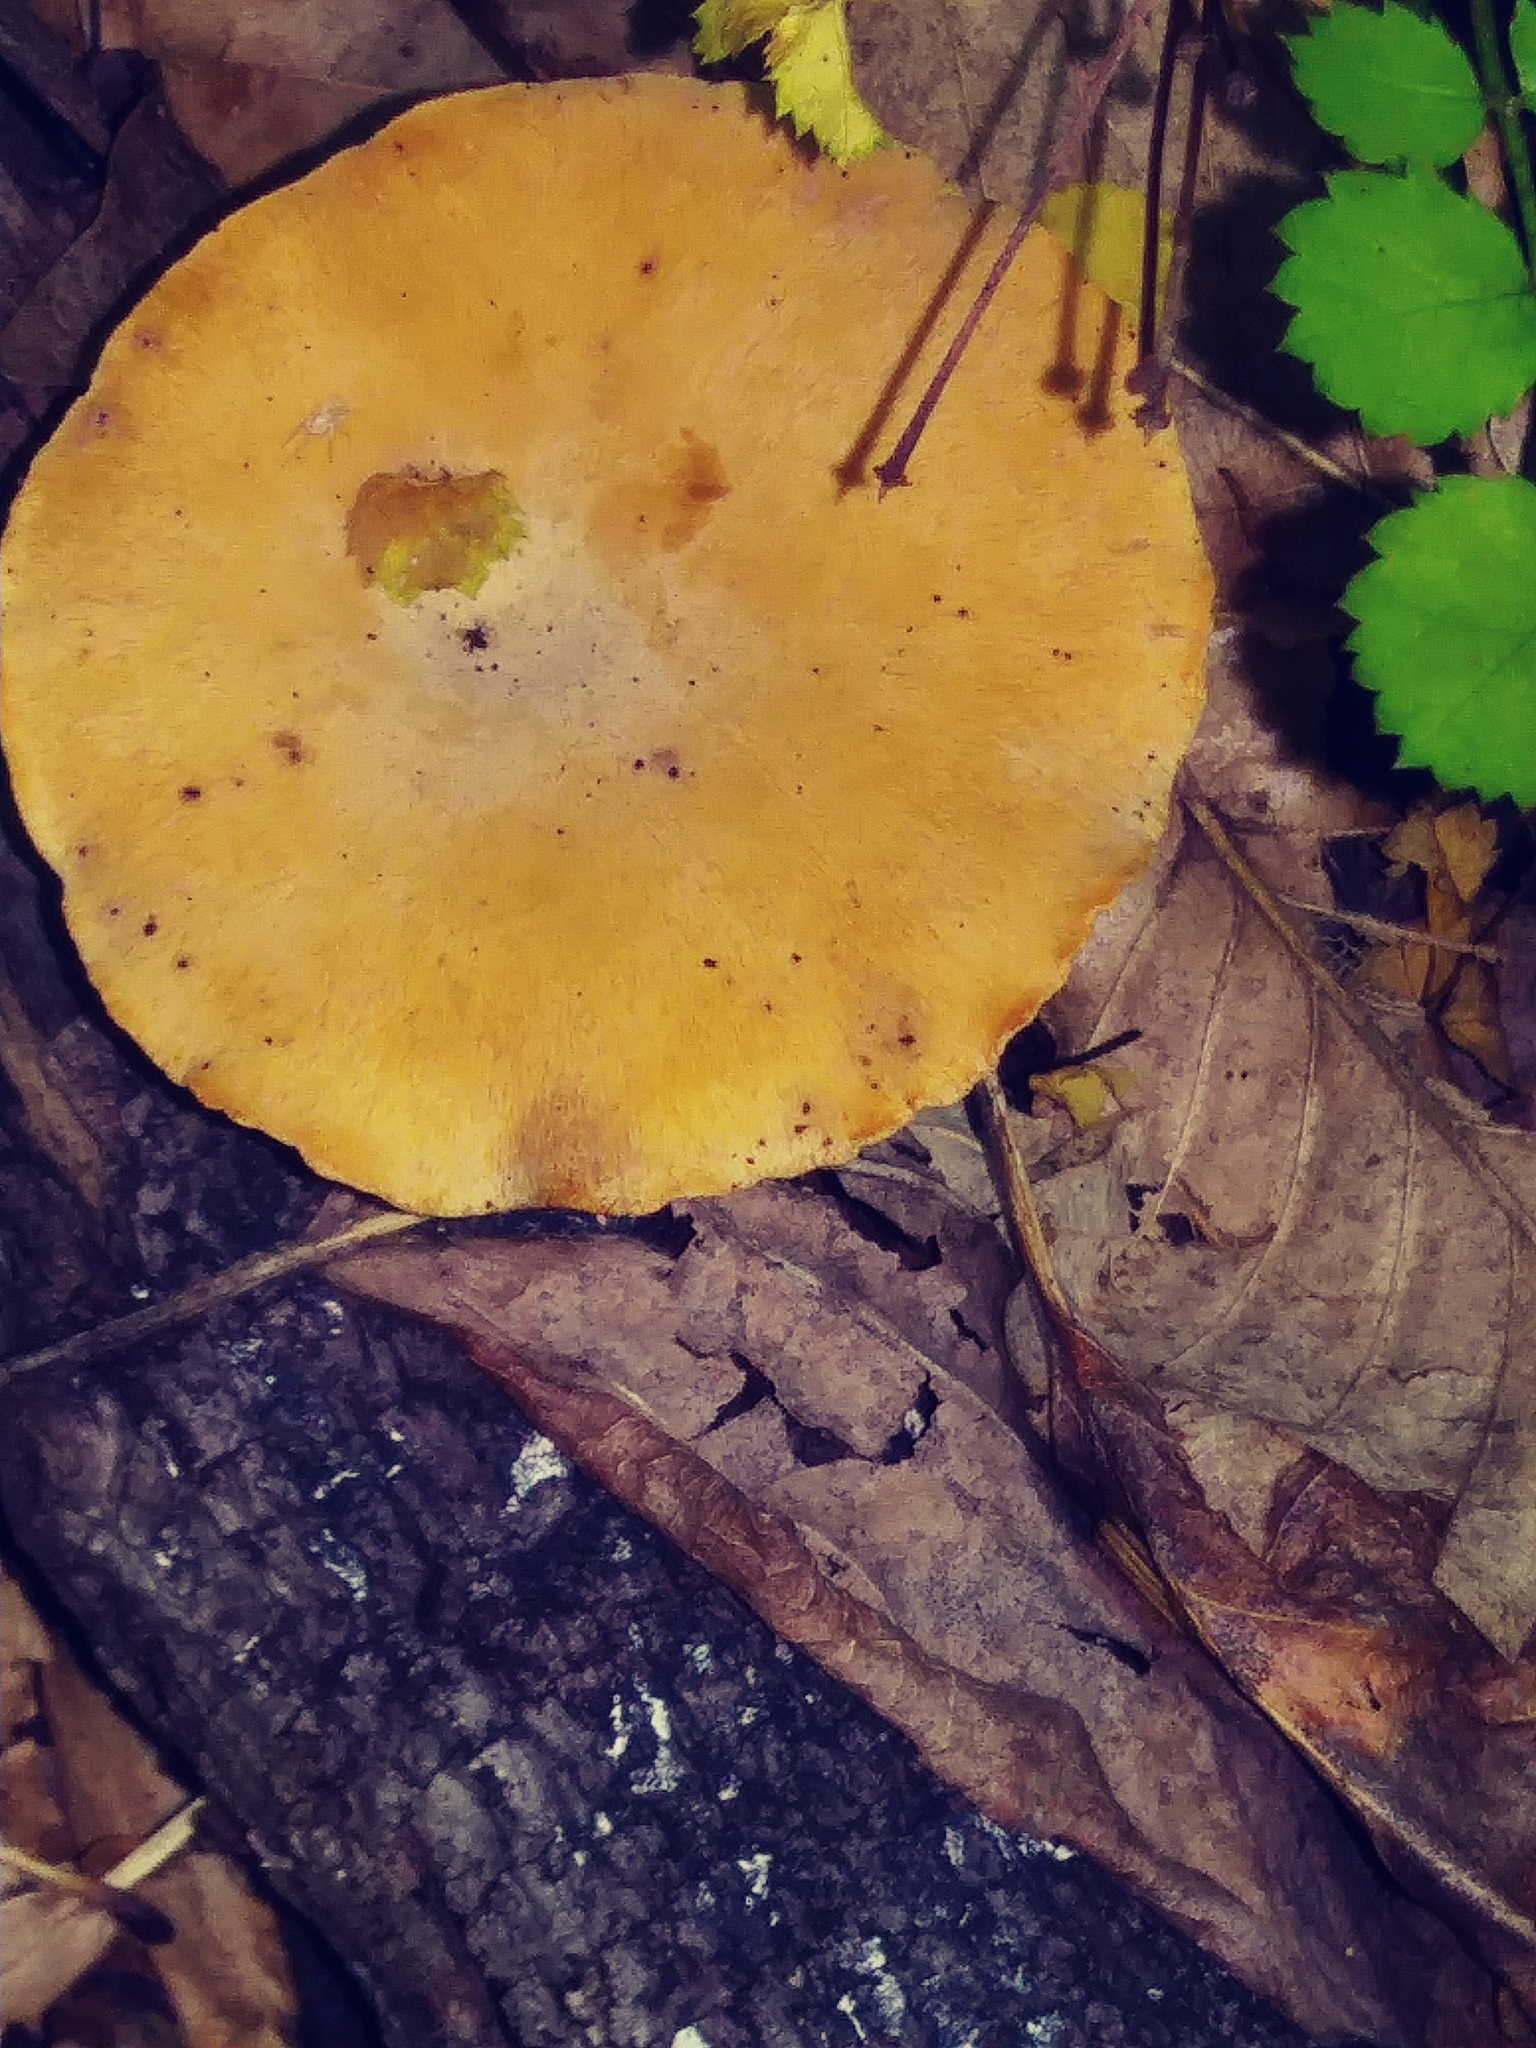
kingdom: Fungi
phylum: Basidiomycota
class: Agaricomycetes
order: Polyporales
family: Polyporaceae
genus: Cerioporus
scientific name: Cerioporus leptocephalus
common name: Blackfoot polypore
